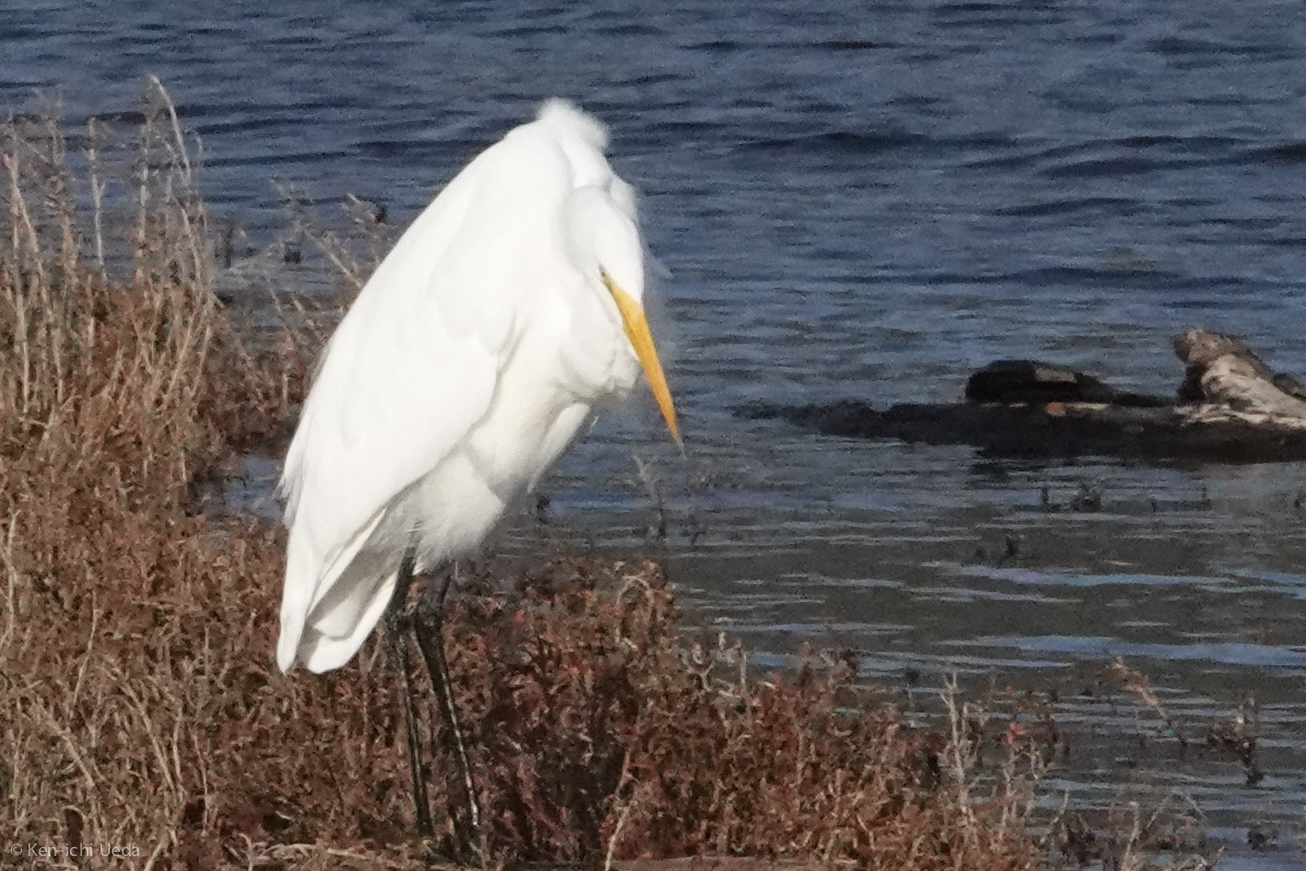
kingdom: Animalia
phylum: Chordata
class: Aves
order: Pelecaniformes
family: Ardeidae
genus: Ardea
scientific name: Ardea alba
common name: Great egret
